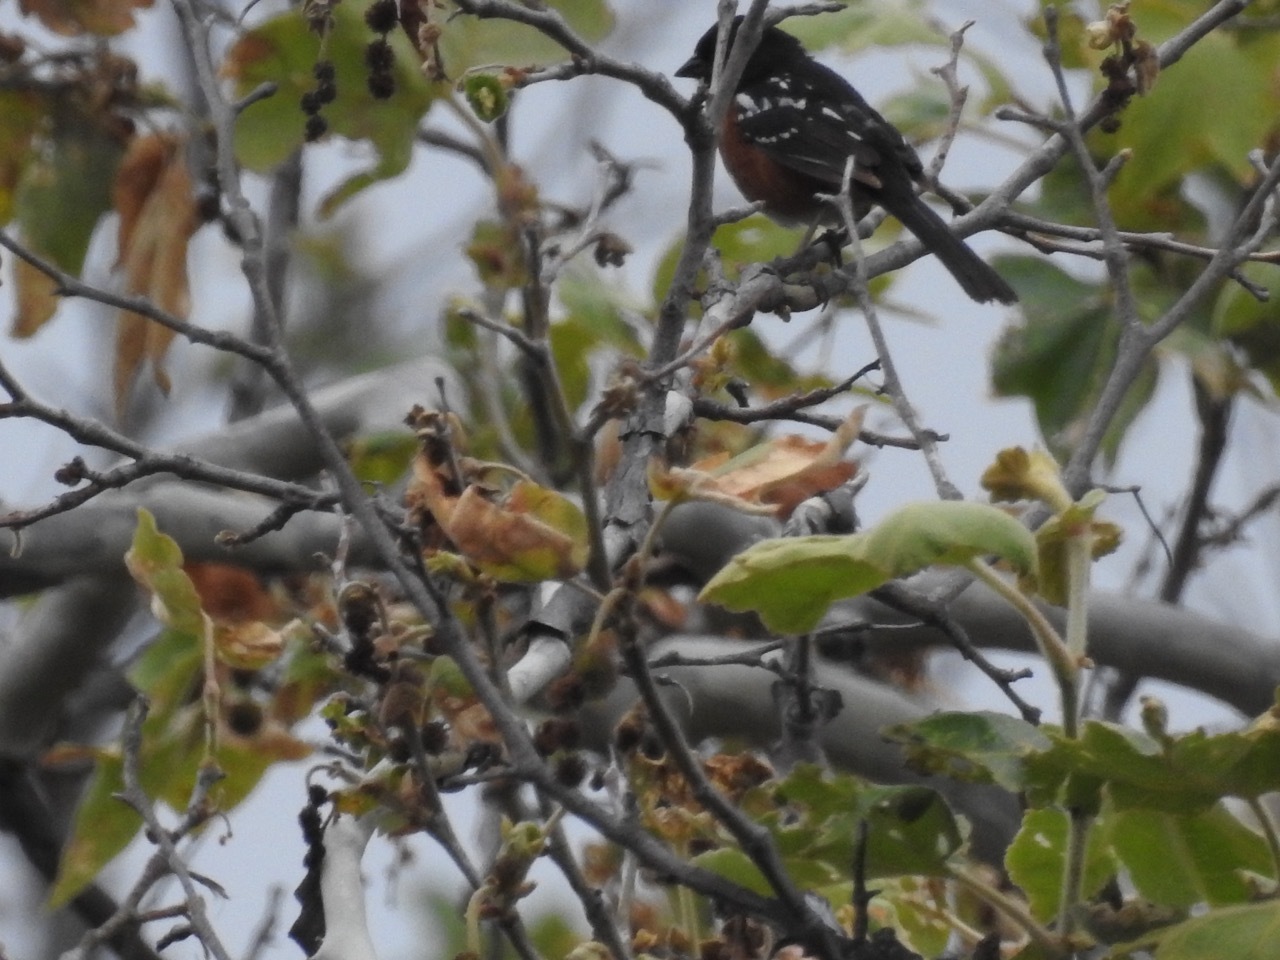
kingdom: Animalia
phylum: Chordata
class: Aves
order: Passeriformes
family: Passerellidae
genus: Pipilo
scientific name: Pipilo maculatus
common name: Spotted towhee
